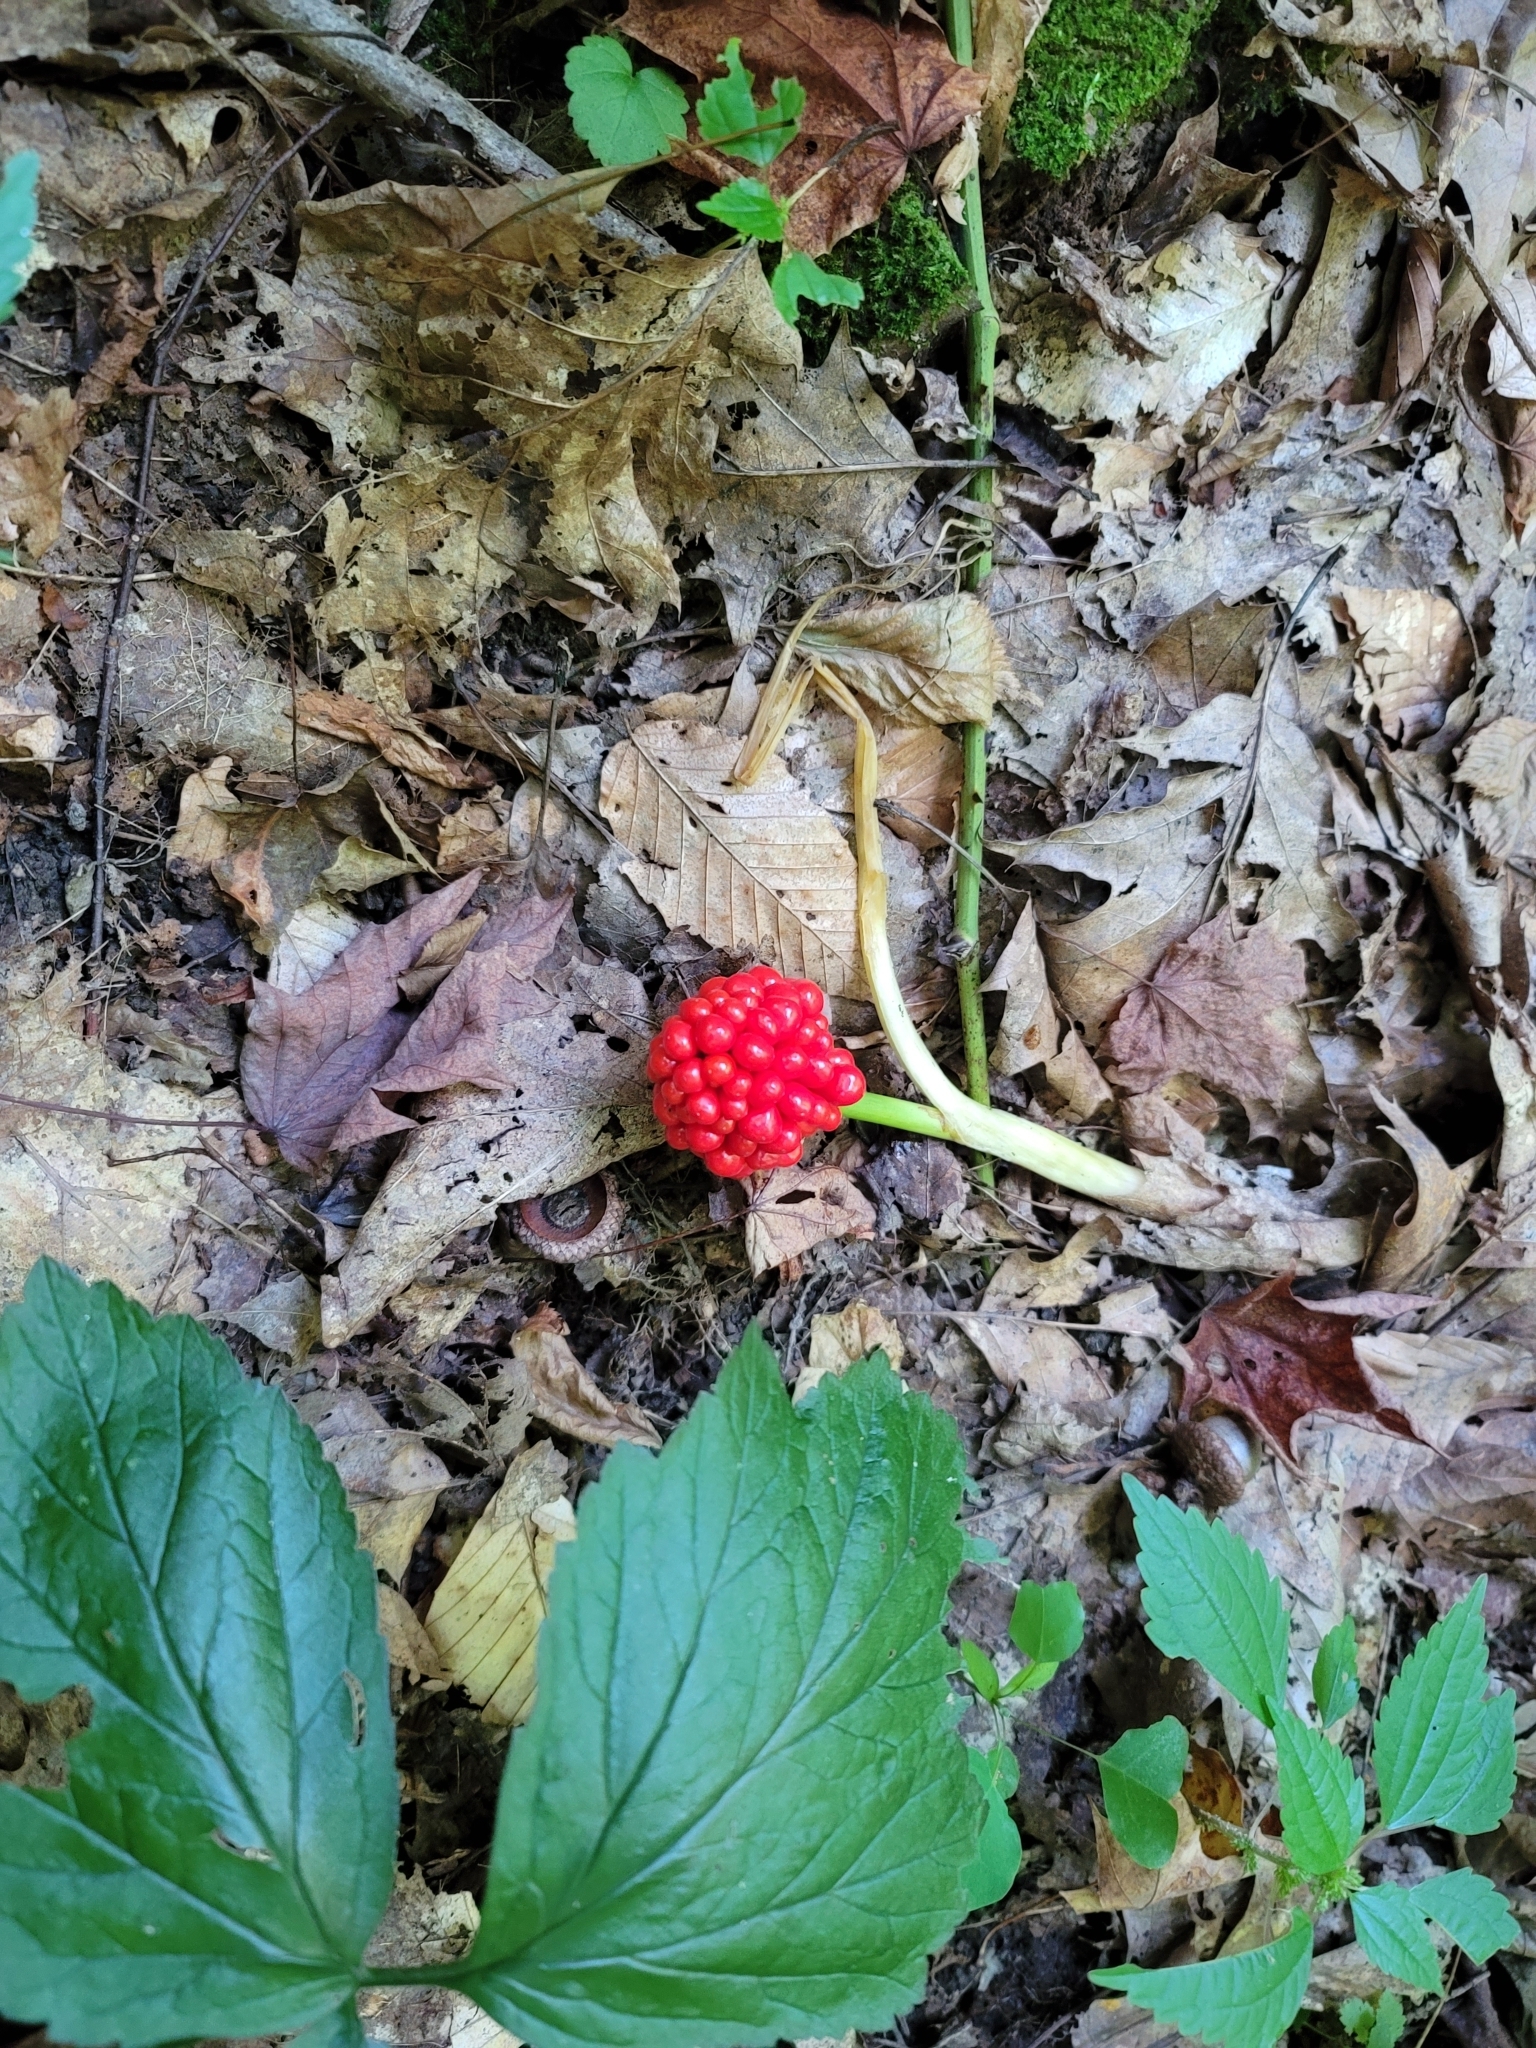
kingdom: Plantae
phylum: Tracheophyta
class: Liliopsida
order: Alismatales
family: Araceae
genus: Arisaema
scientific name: Arisaema triphyllum
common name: Jack-in-the-pulpit
